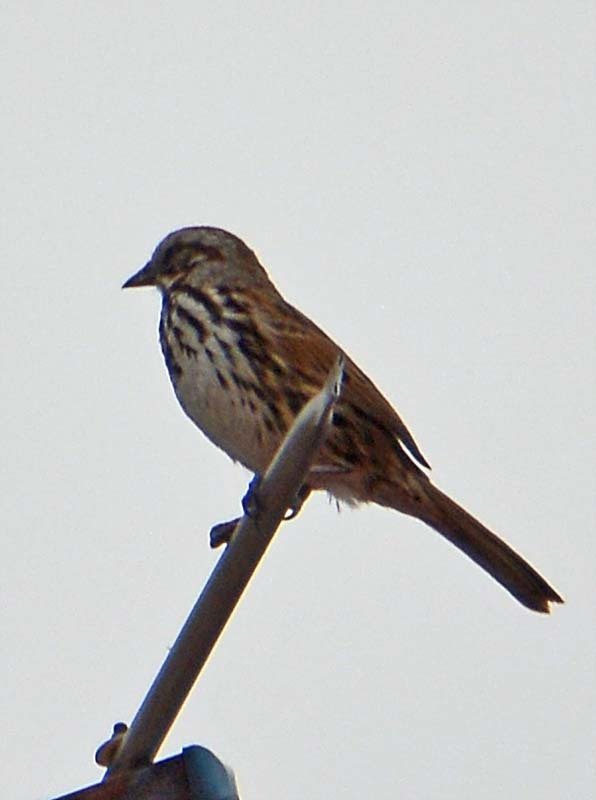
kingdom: Animalia
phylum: Chordata
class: Aves
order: Passeriformes
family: Passerellidae
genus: Melospiza
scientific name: Melospiza melodia
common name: Song sparrow
